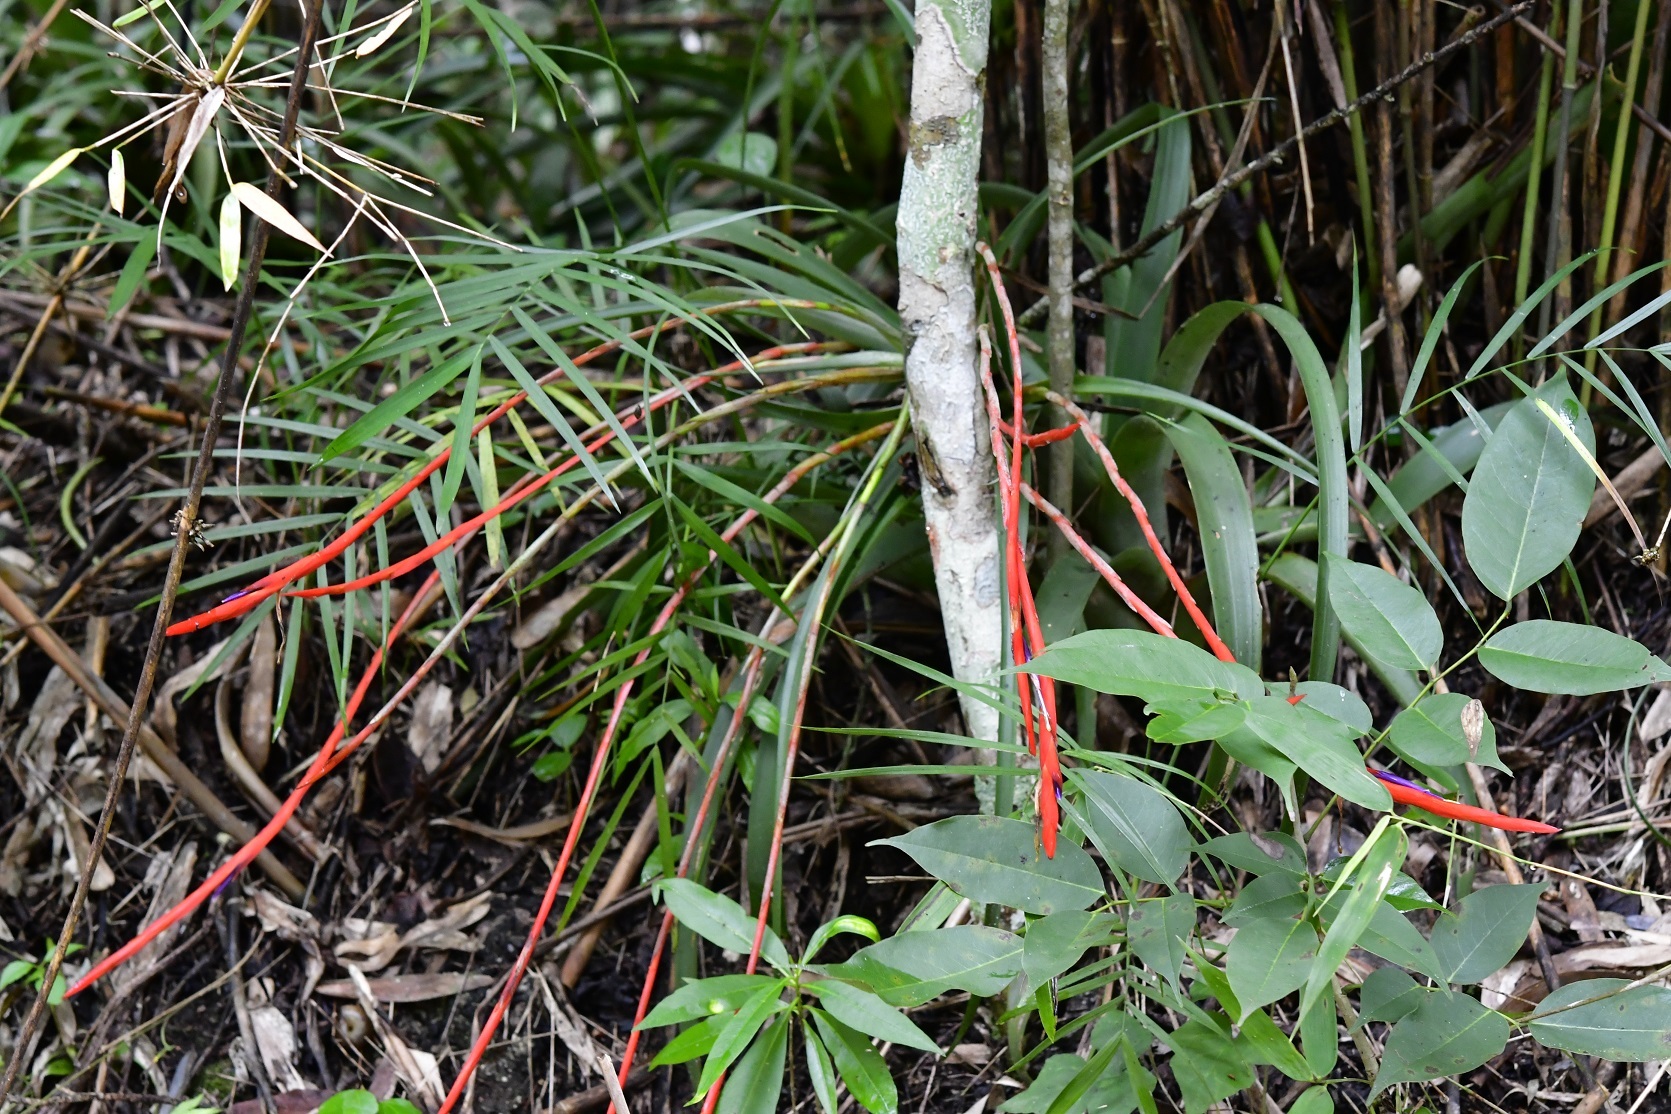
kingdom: Plantae
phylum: Tracheophyta
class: Liliopsida
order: Poales
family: Bromeliaceae
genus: Tillandsia
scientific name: Tillandsia flabellata
